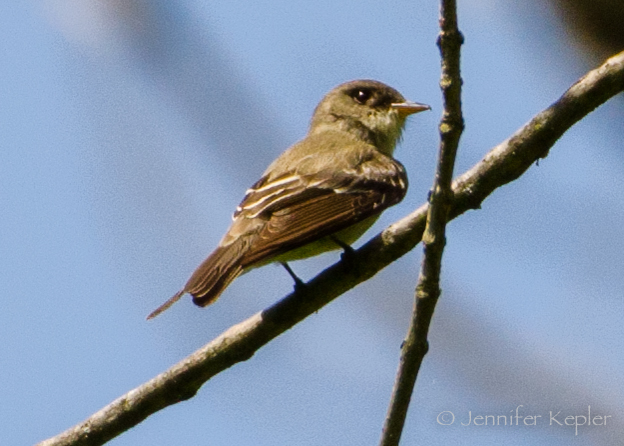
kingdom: Animalia
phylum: Chordata
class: Aves
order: Passeriformes
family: Tyrannidae
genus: Contopus
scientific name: Contopus virens
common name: Eastern wood-pewee
